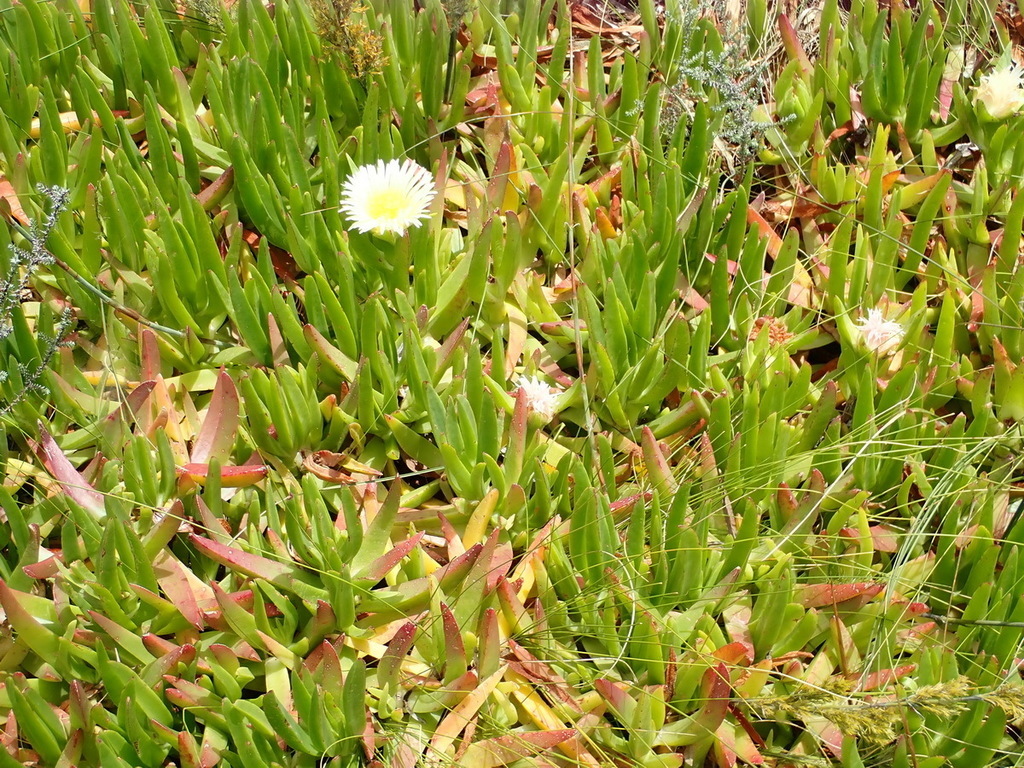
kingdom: Plantae
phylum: Tracheophyta
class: Magnoliopsida
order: Caryophyllales
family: Aizoaceae
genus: Carpobrotus
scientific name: Carpobrotus edulis
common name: Hottentot-fig
